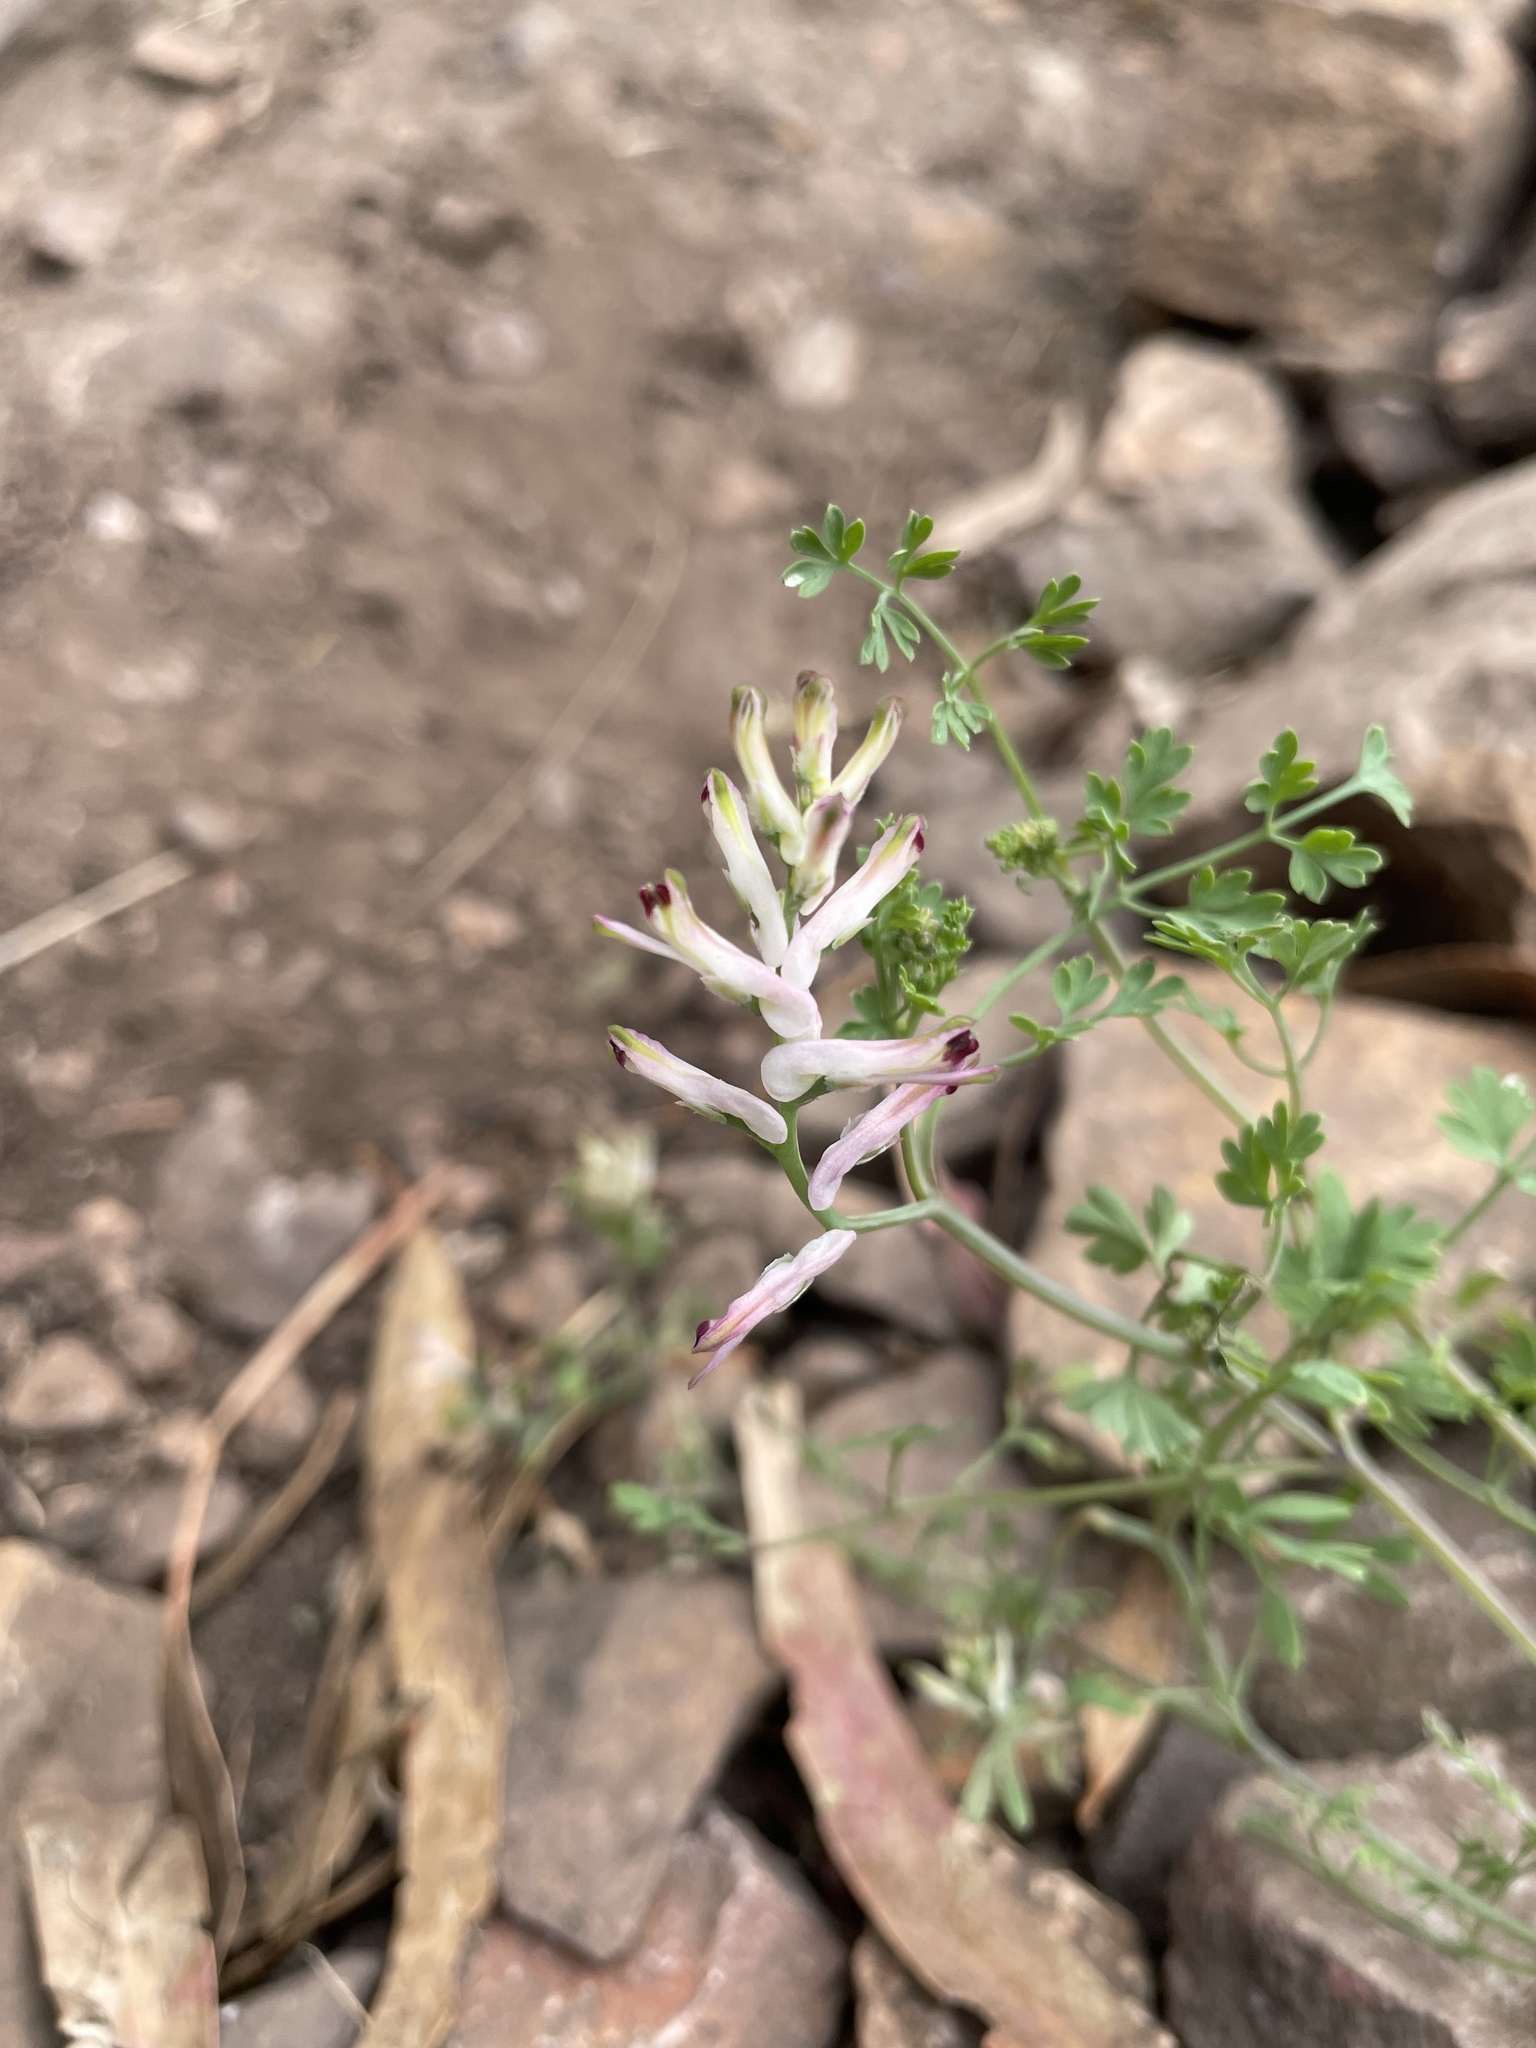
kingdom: Plantae
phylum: Tracheophyta
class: Magnoliopsida
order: Ranunculales
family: Papaveraceae
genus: Fumaria
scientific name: Fumaria bastardii
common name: Tall ramping-fumitory
